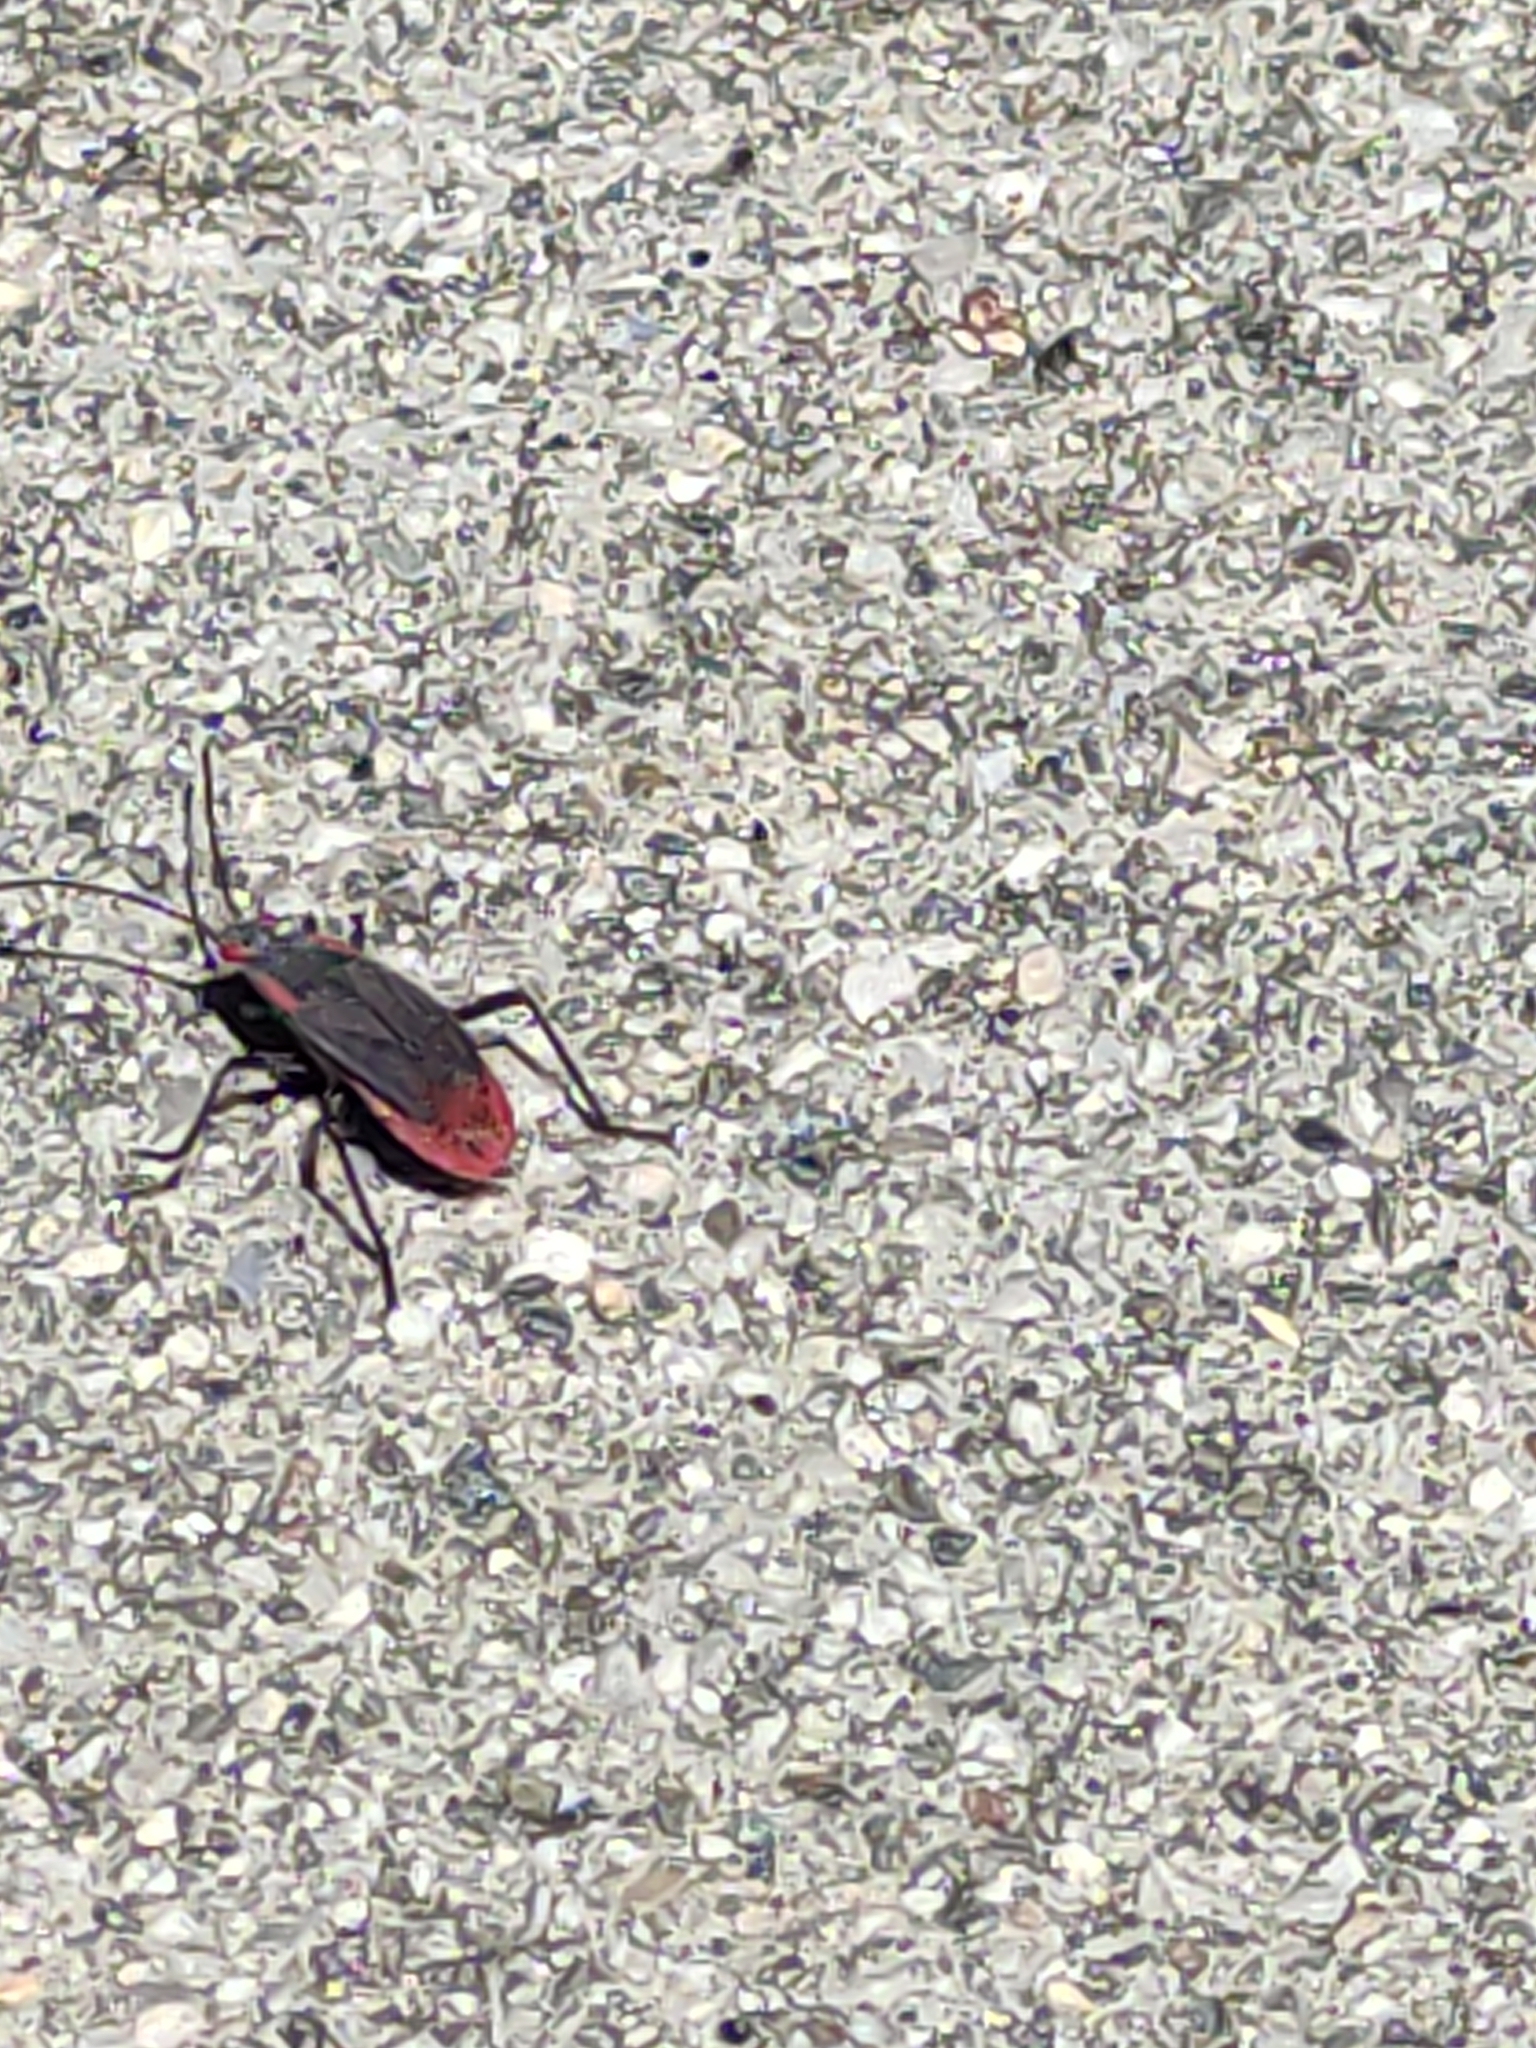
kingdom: Animalia
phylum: Arthropoda
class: Insecta
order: Hemiptera
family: Rhopalidae
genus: Jadera
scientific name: Jadera haematoloma
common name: Red-shouldered bug
